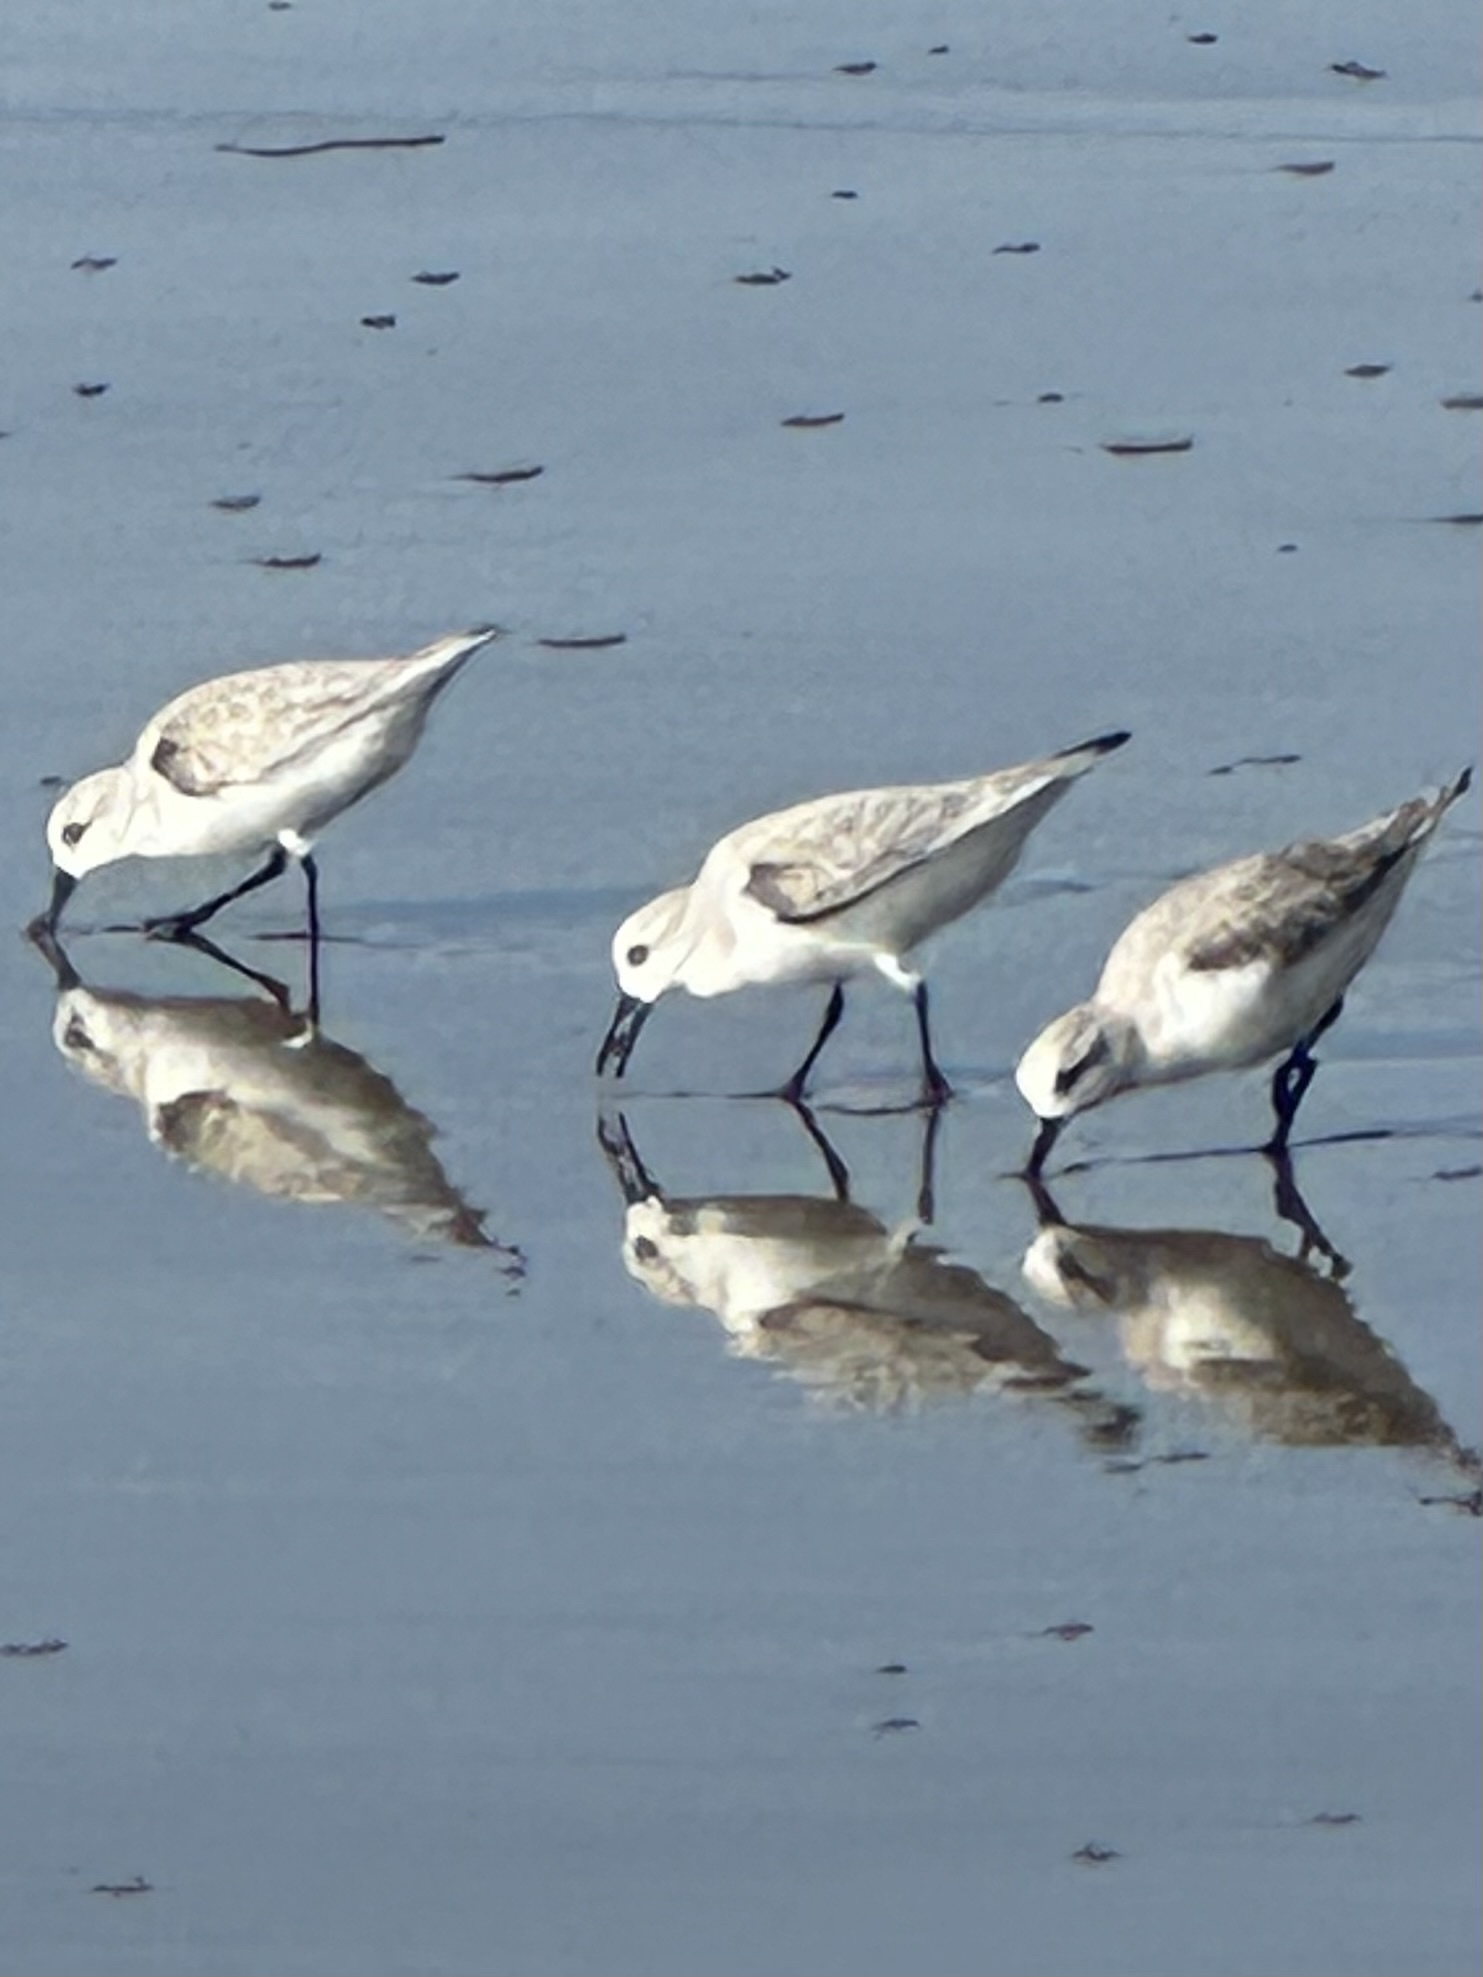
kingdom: Animalia
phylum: Chordata
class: Aves
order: Charadriiformes
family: Scolopacidae
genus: Calidris
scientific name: Calidris alba
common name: Sanderling
